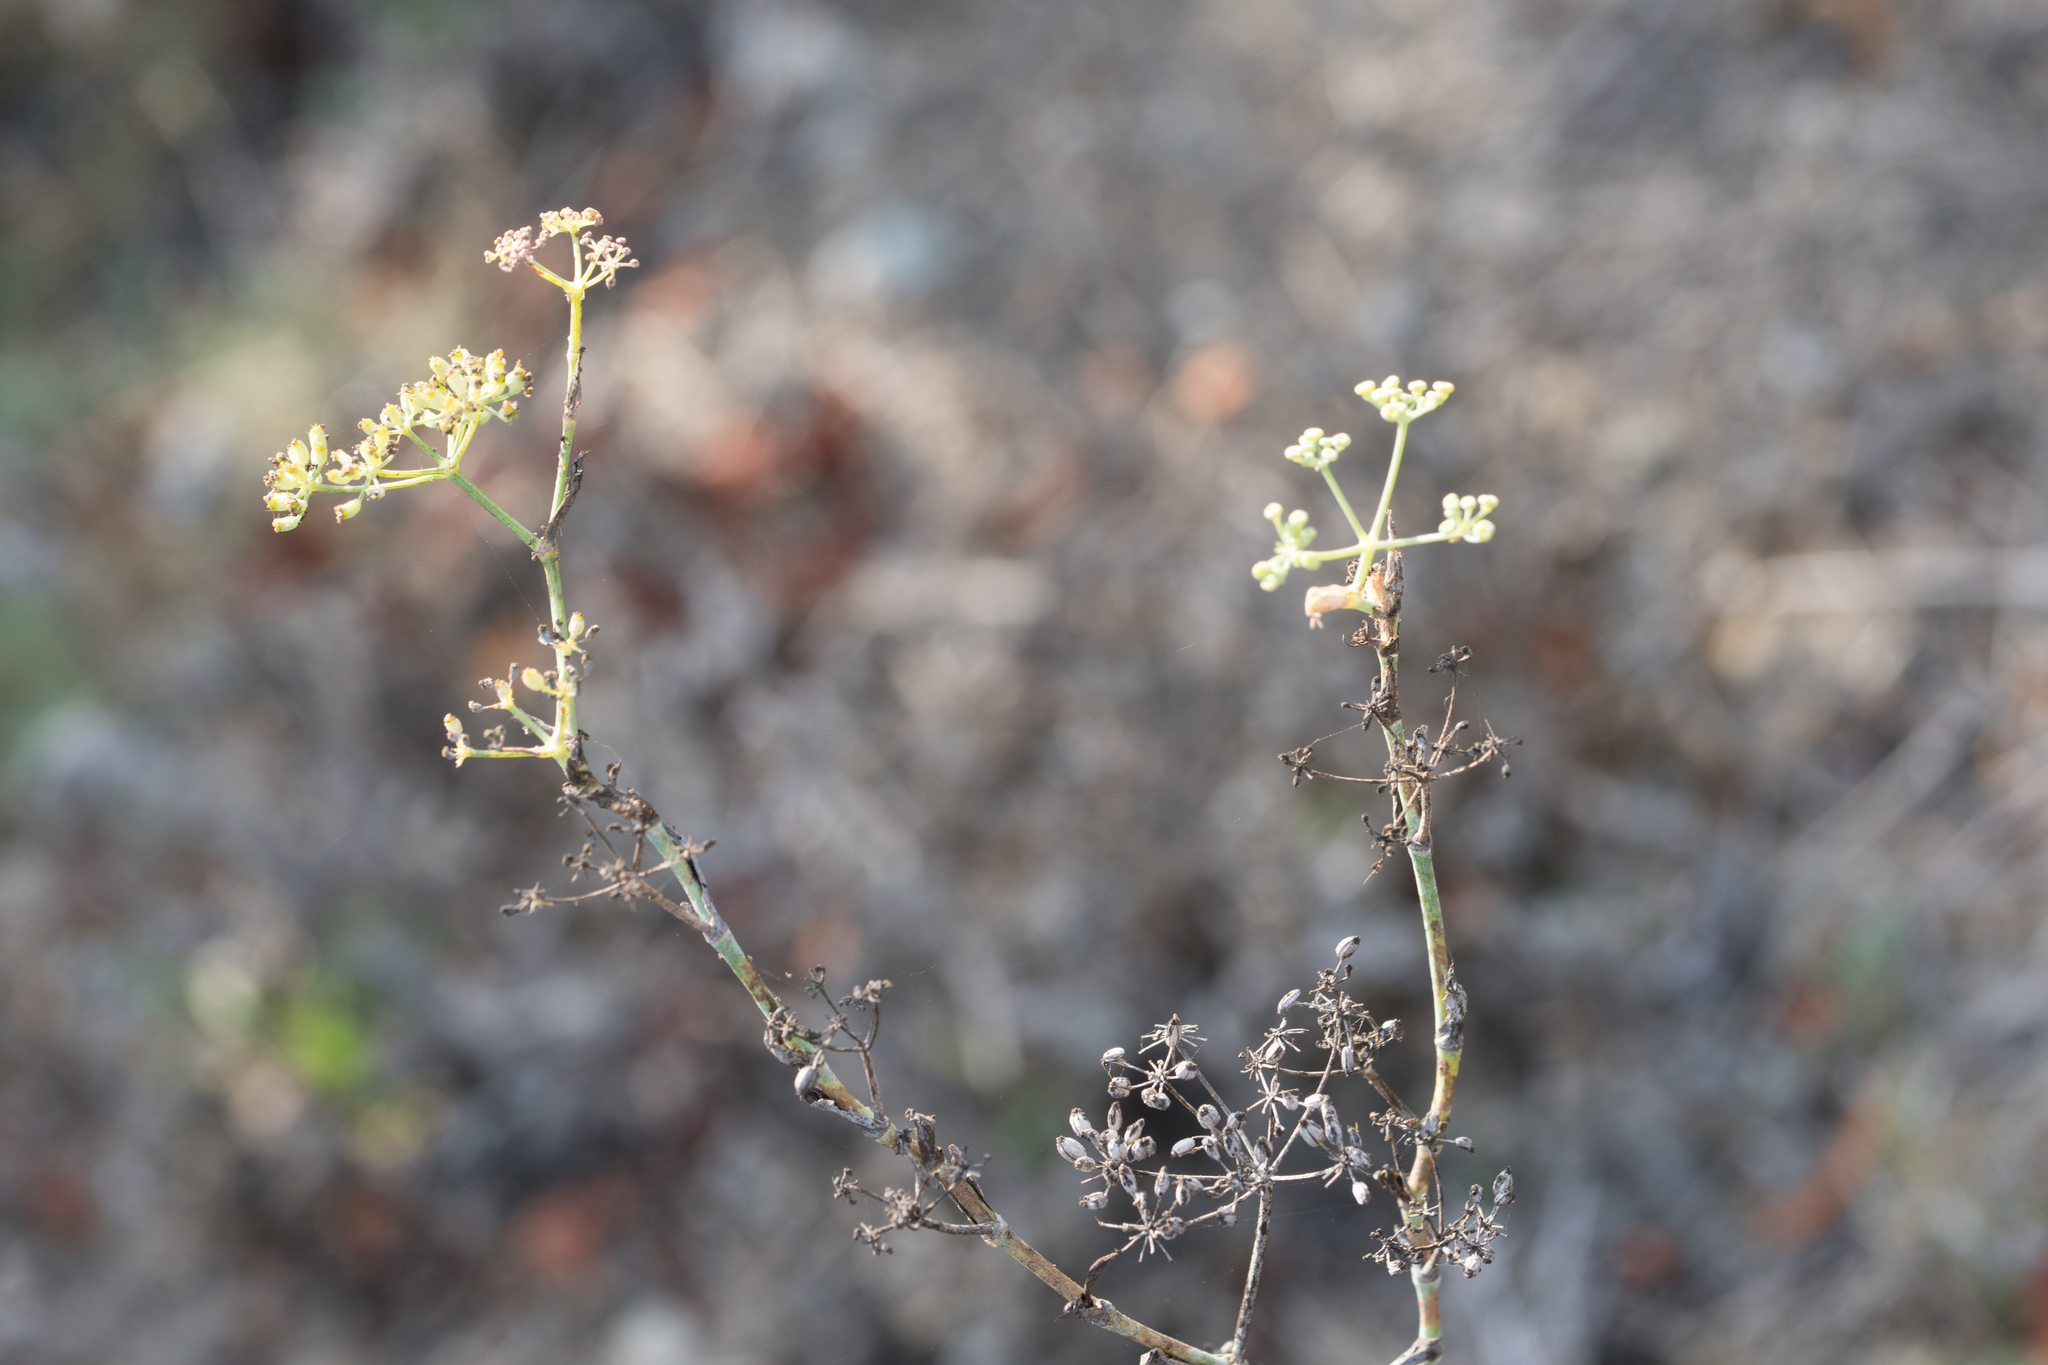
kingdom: Plantae
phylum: Tracheophyta
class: Magnoliopsida
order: Apiales
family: Apiaceae
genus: Foeniculum
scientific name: Foeniculum vulgare
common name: Fennel
